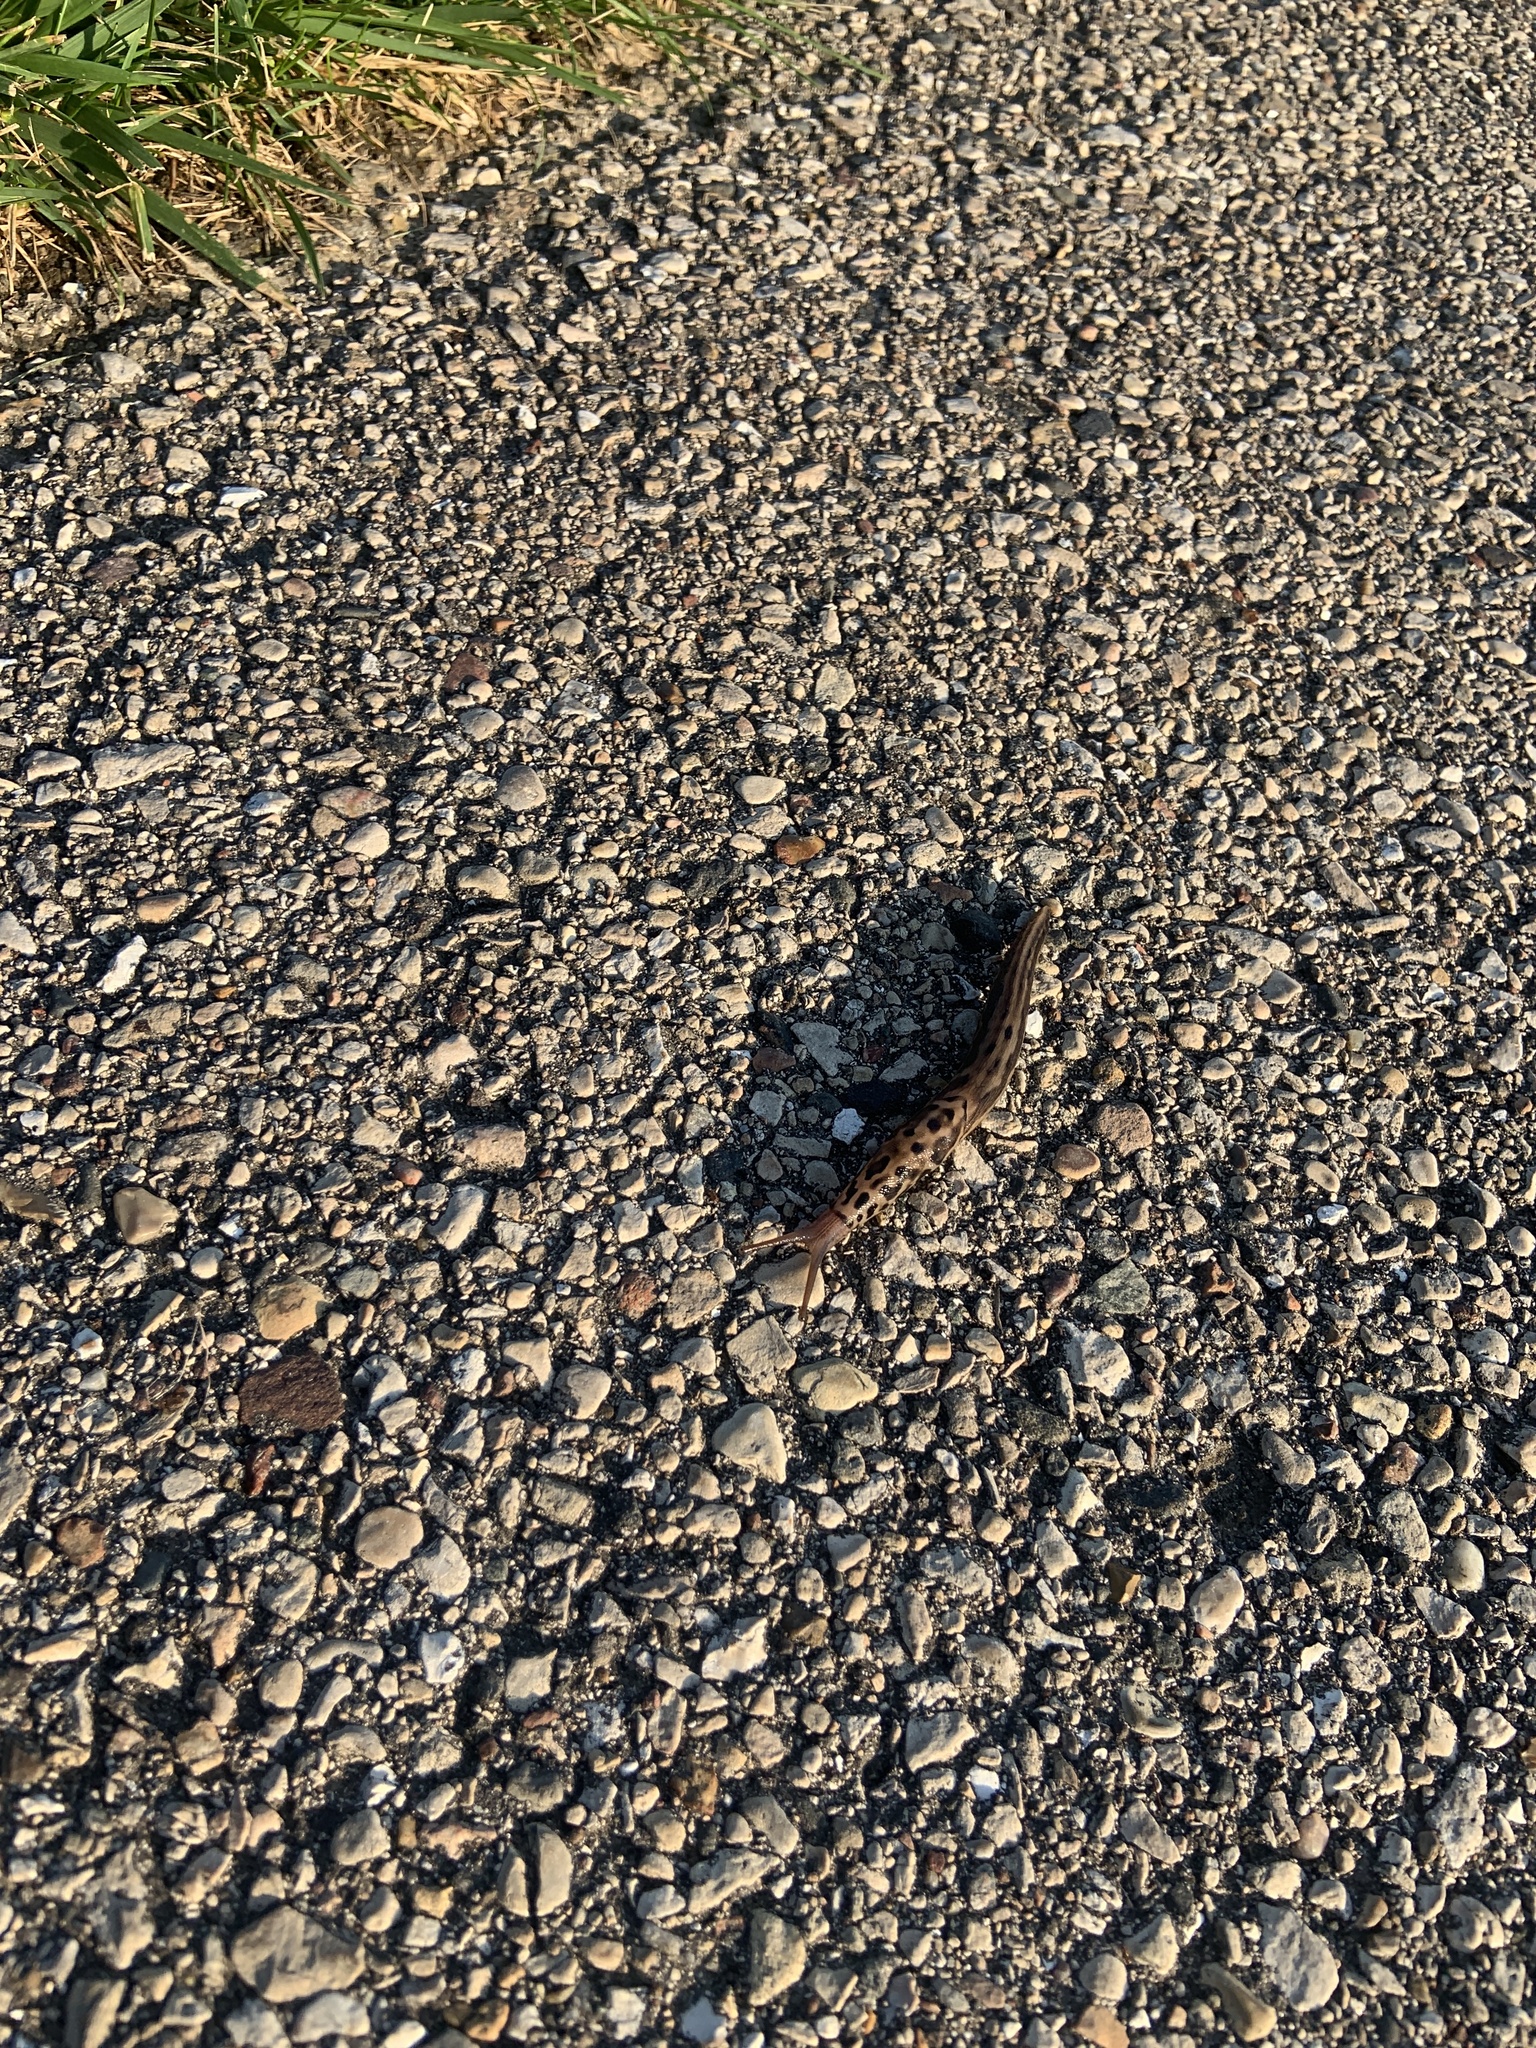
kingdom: Animalia
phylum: Mollusca
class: Gastropoda
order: Stylommatophora
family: Limacidae
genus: Limax
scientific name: Limax maximus
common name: Great grey slug
